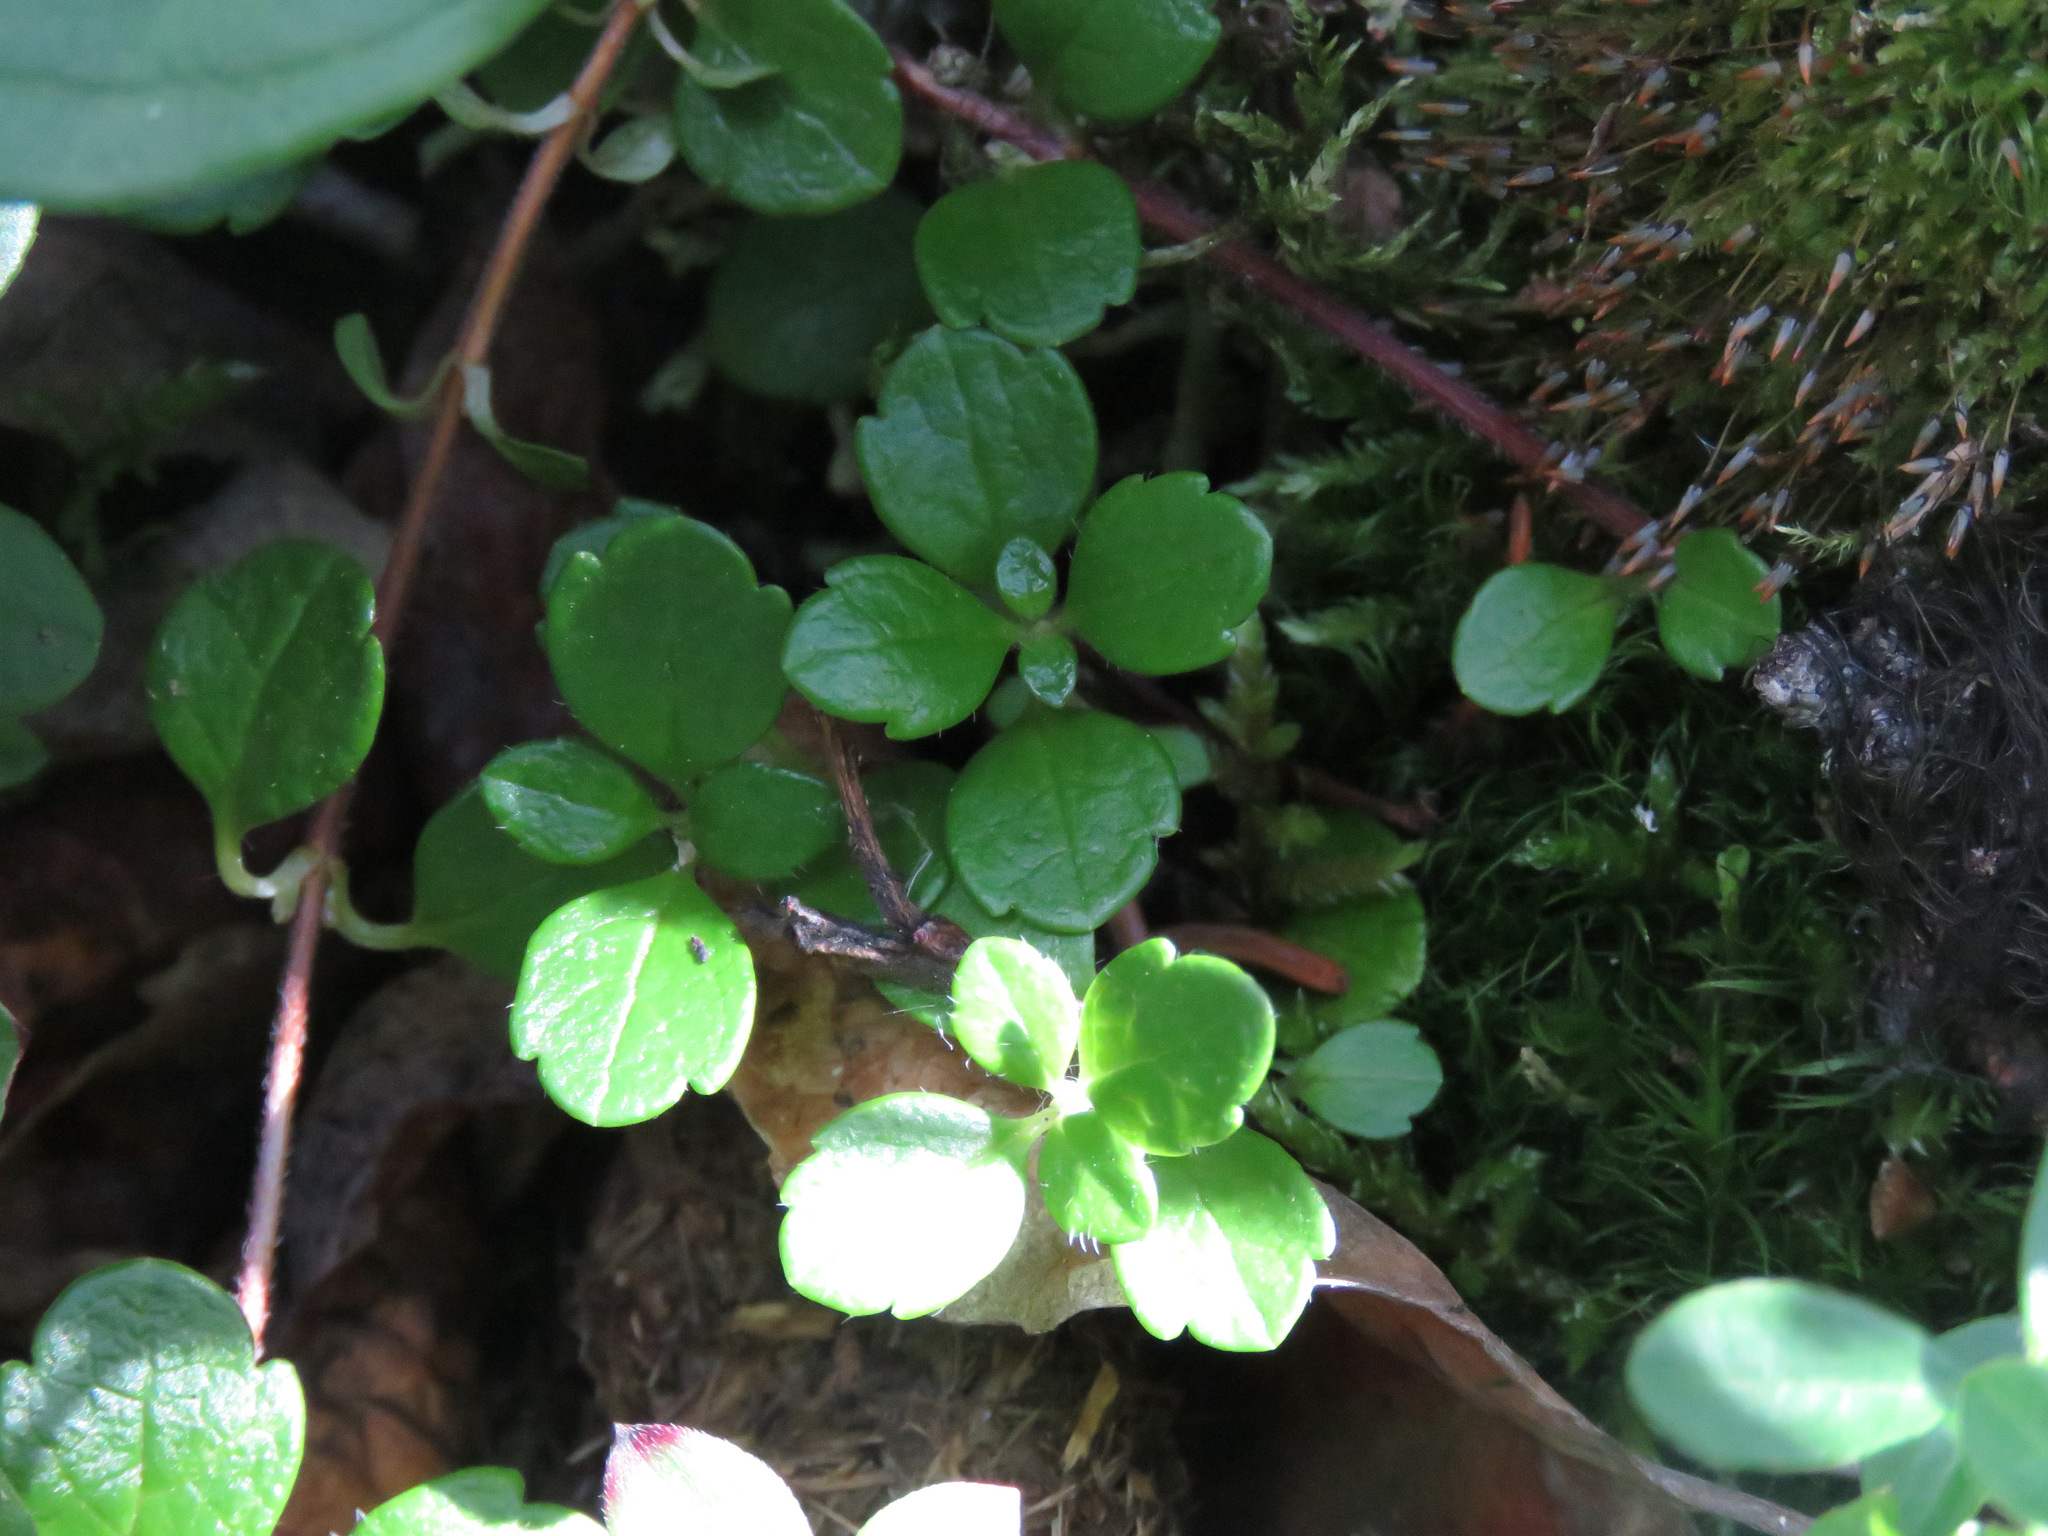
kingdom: Plantae
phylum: Tracheophyta
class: Magnoliopsida
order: Dipsacales
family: Caprifoliaceae
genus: Linnaea
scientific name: Linnaea borealis
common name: Twinflower
